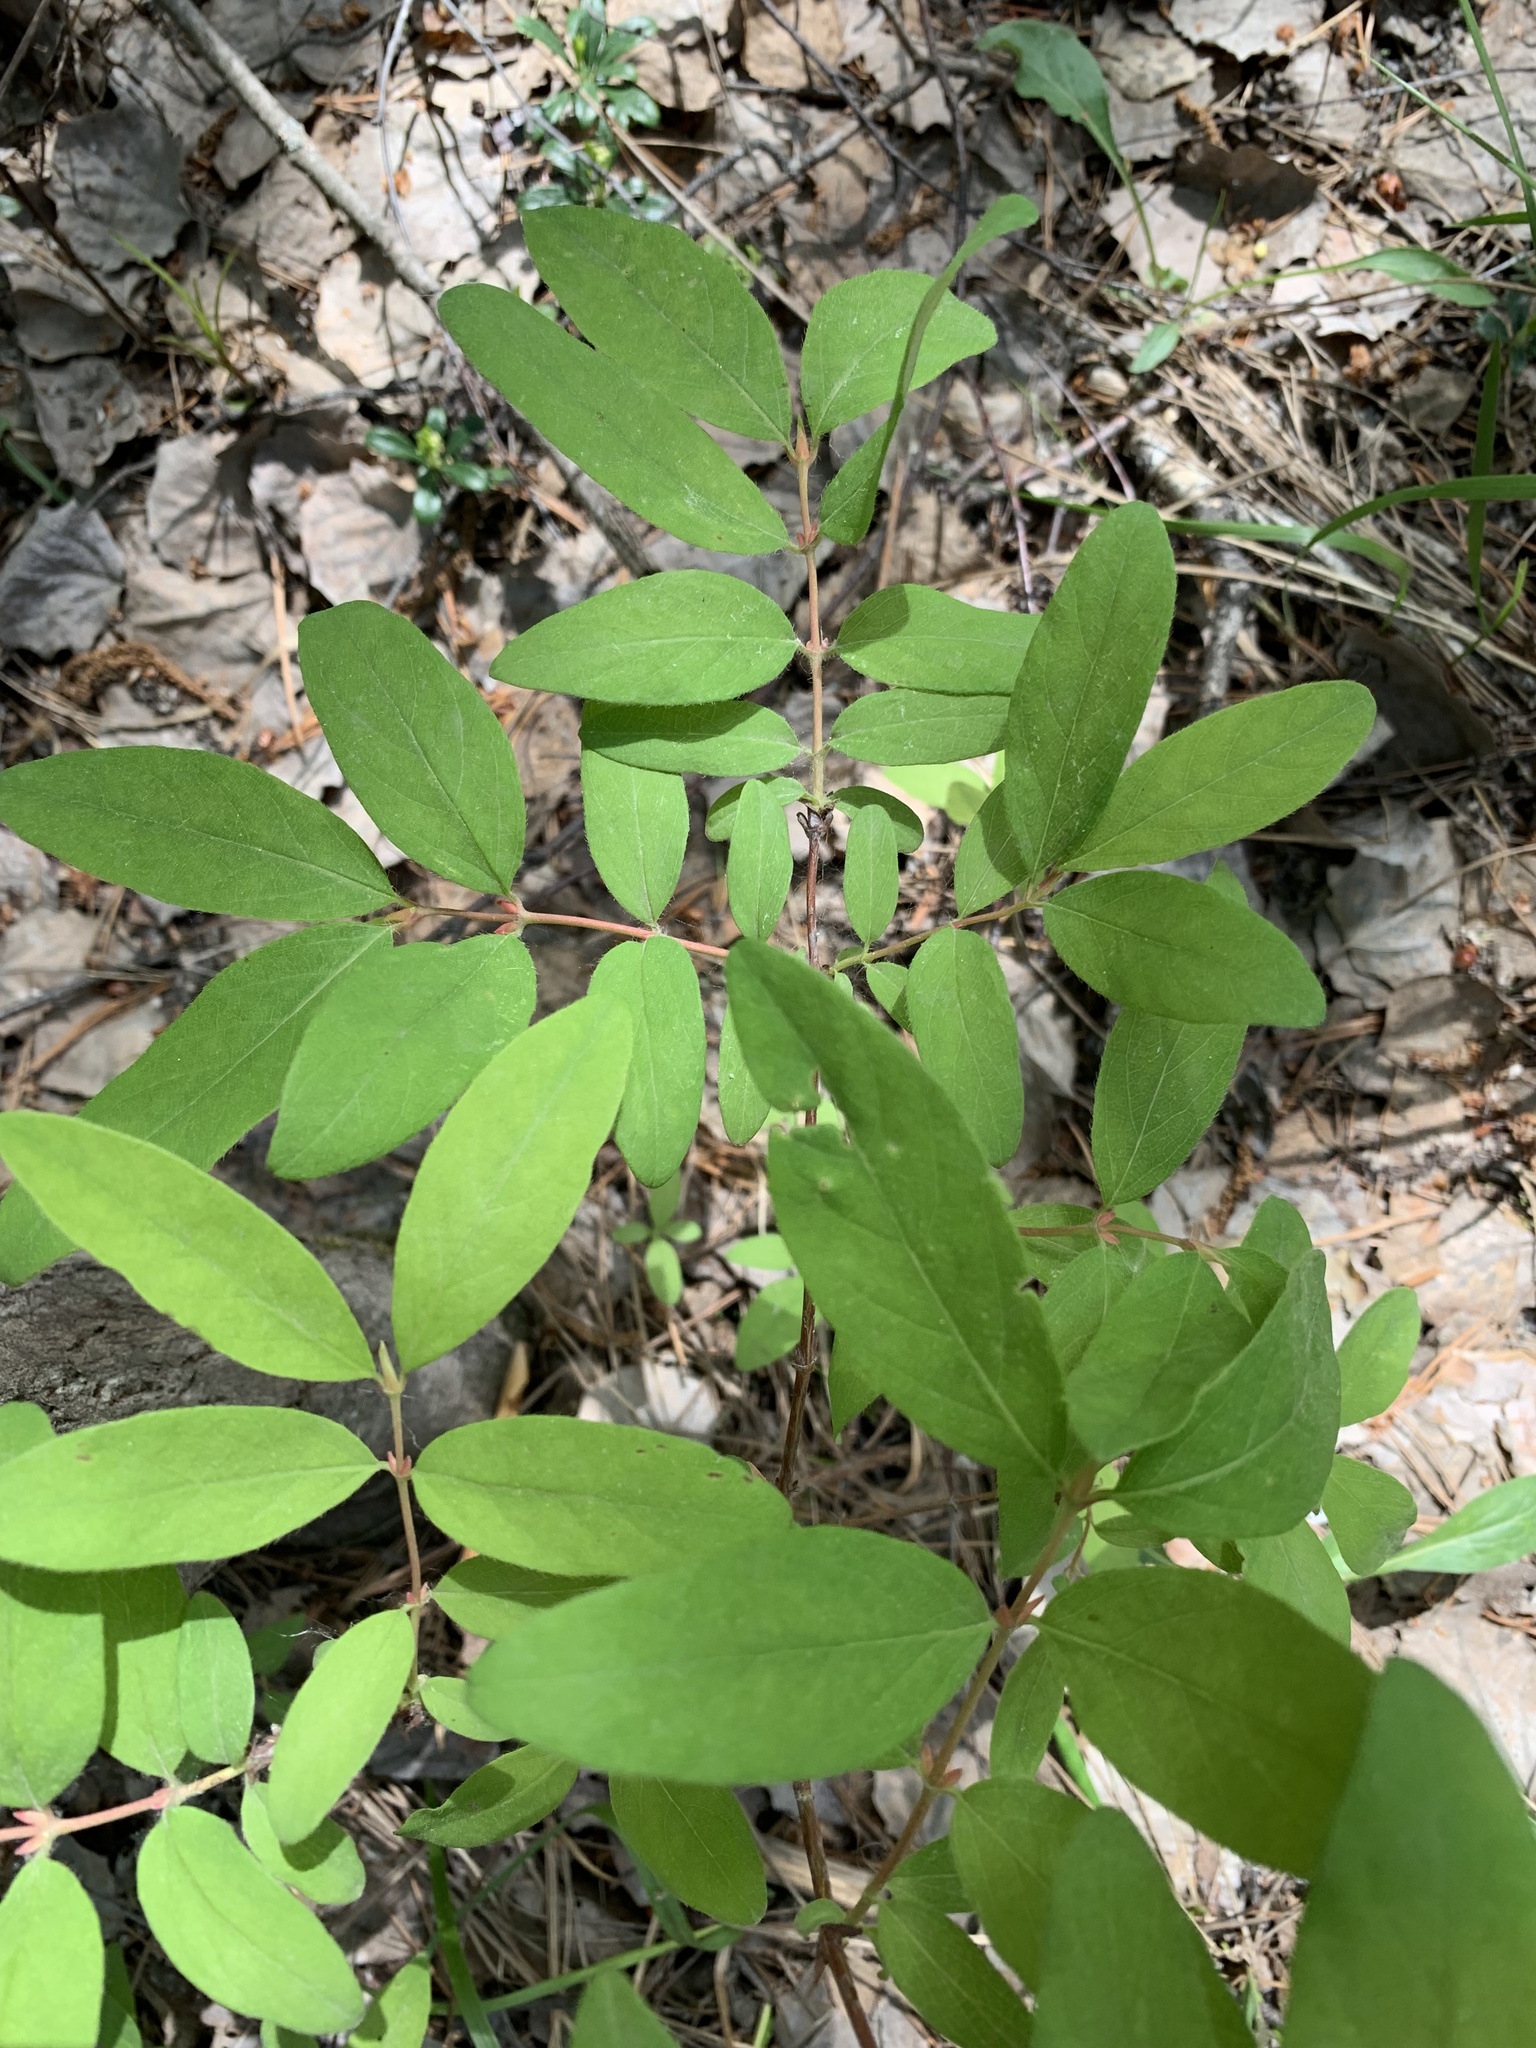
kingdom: Plantae
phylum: Tracheophyta
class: Magnoliopsida
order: Dipsacales
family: Caprifoliaceae
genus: Lonicera
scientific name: Lonicera caerulea
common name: Blue honeysuckle
